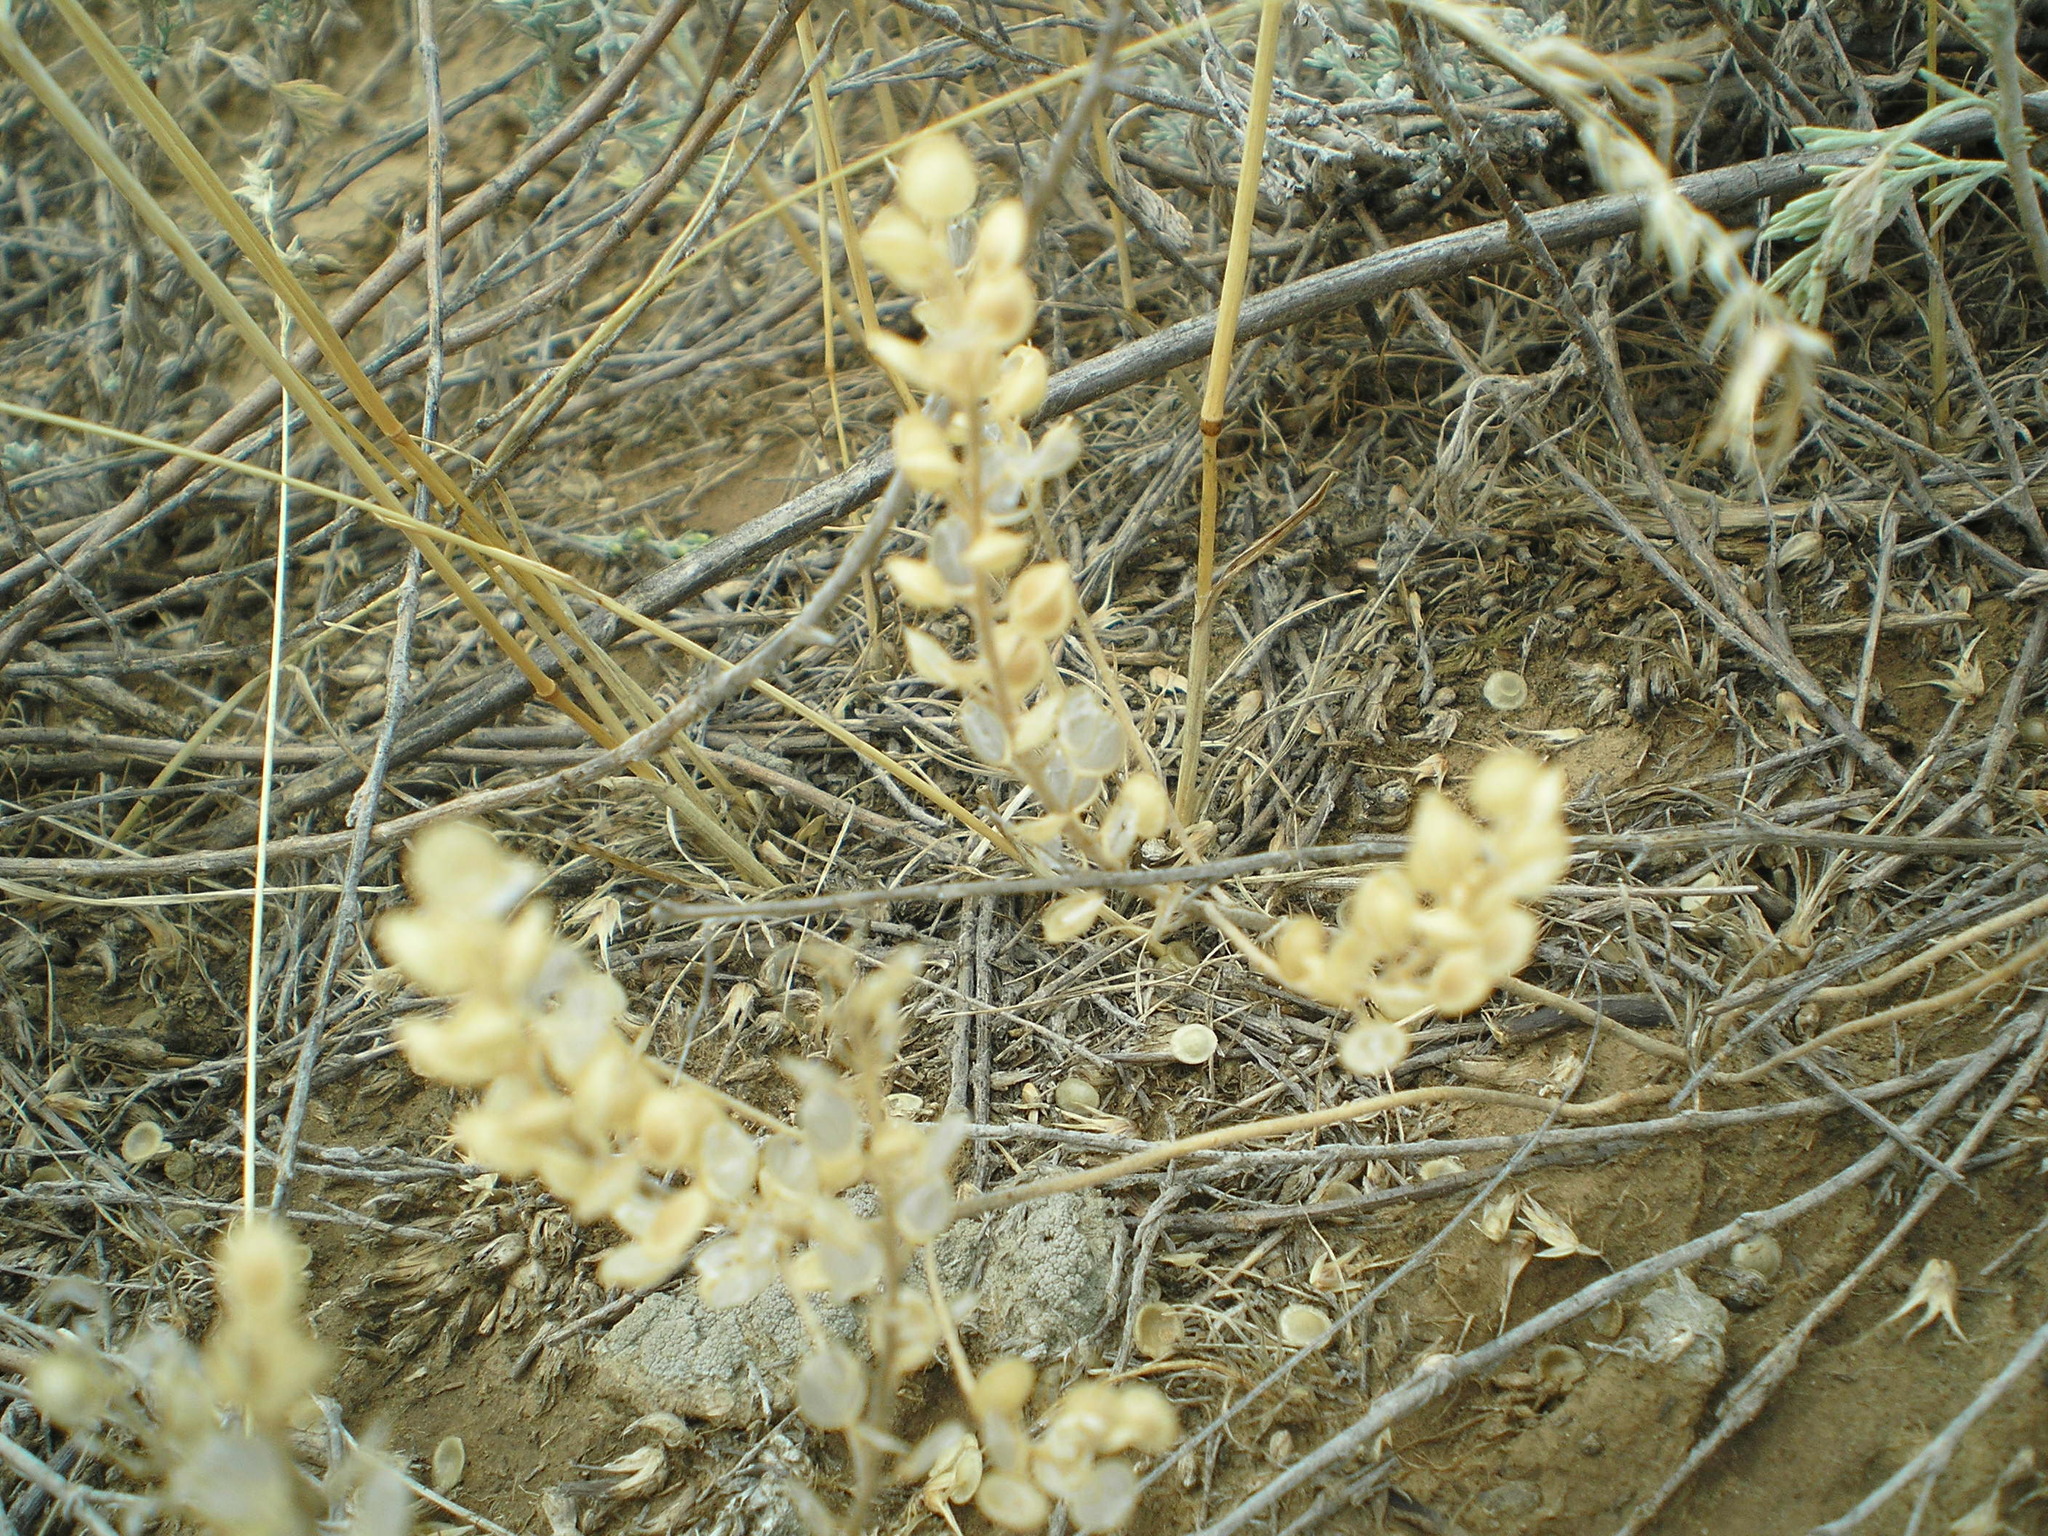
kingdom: Plantae
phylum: Tracheophyta
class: Magnoliopsida
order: Brassicales
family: Brassicaceae
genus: Alyssum
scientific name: Alyssum turkestanicum
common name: Desert alyssum
